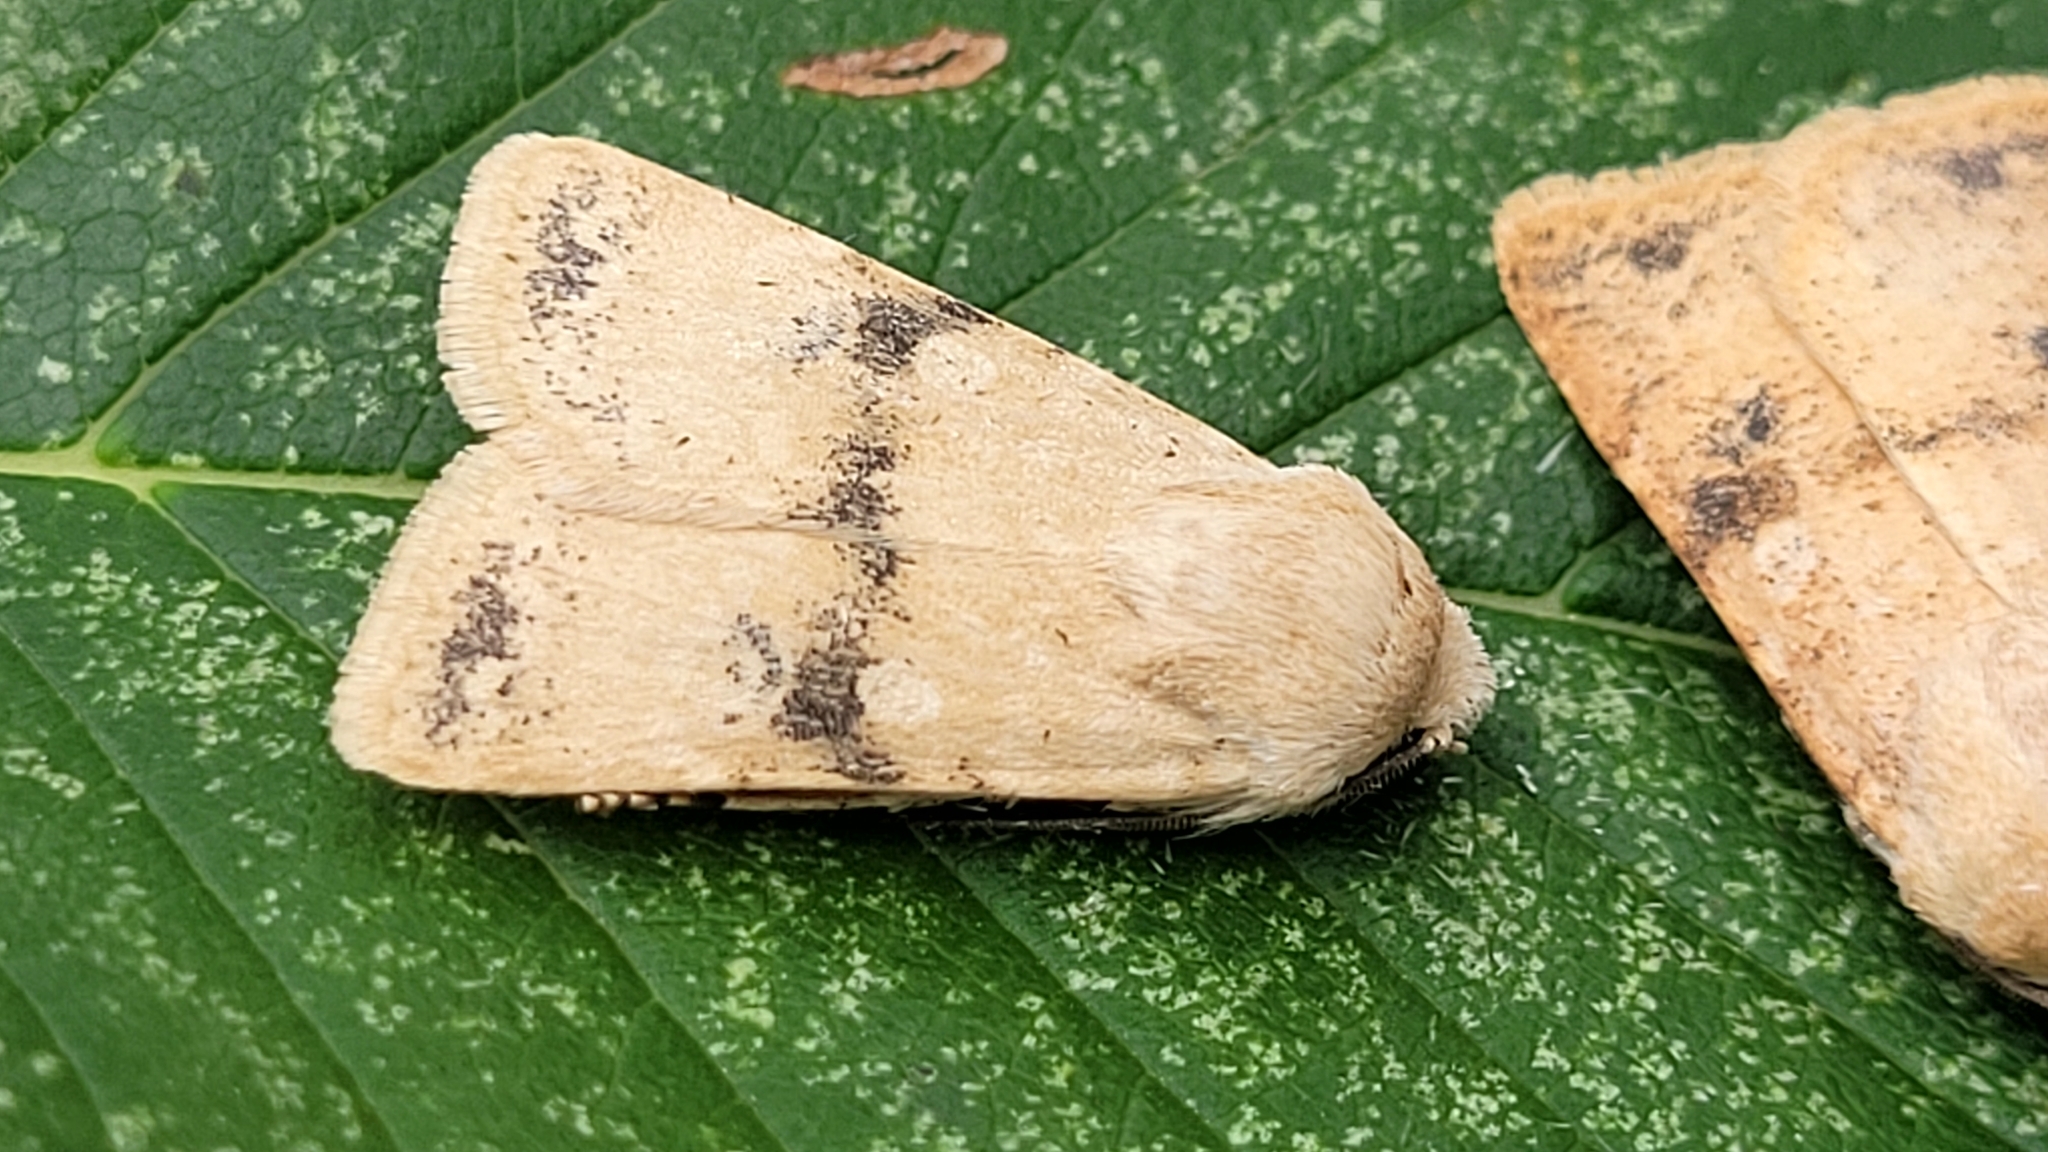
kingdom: Animalia
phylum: Arthropoda
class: Insecta
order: Lepidoptera
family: Noctuidae
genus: Euxoa
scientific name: Euxoa teleboa
